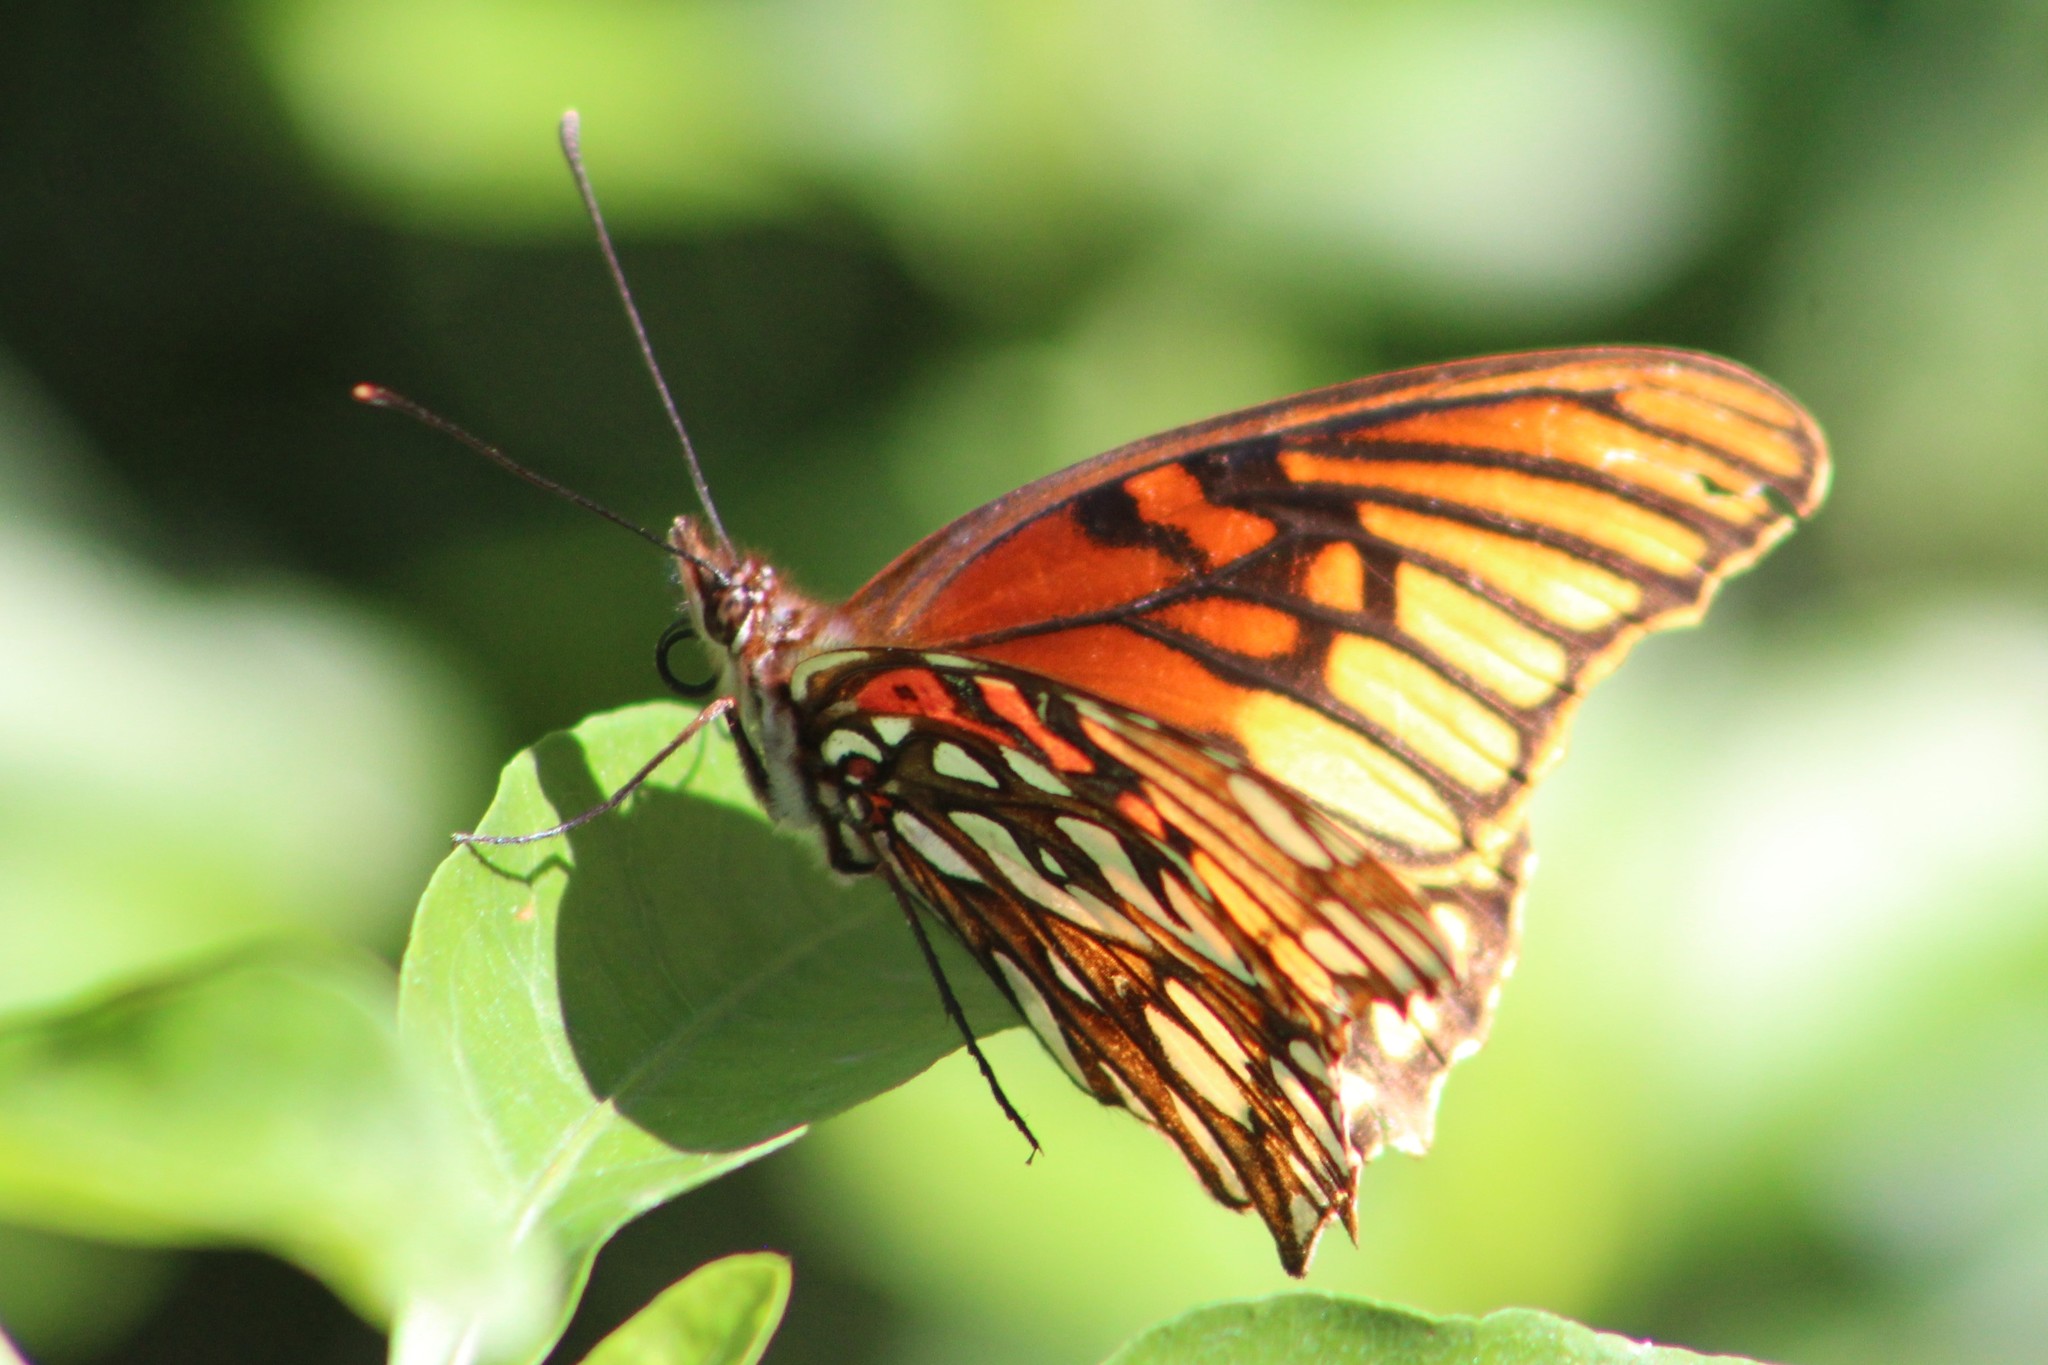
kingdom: Animalia
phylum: Arthropoda
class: Insecta
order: Lepidoptera
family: Nymphalidae
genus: Dione
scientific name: Dione moneta
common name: Mexican silverspot
